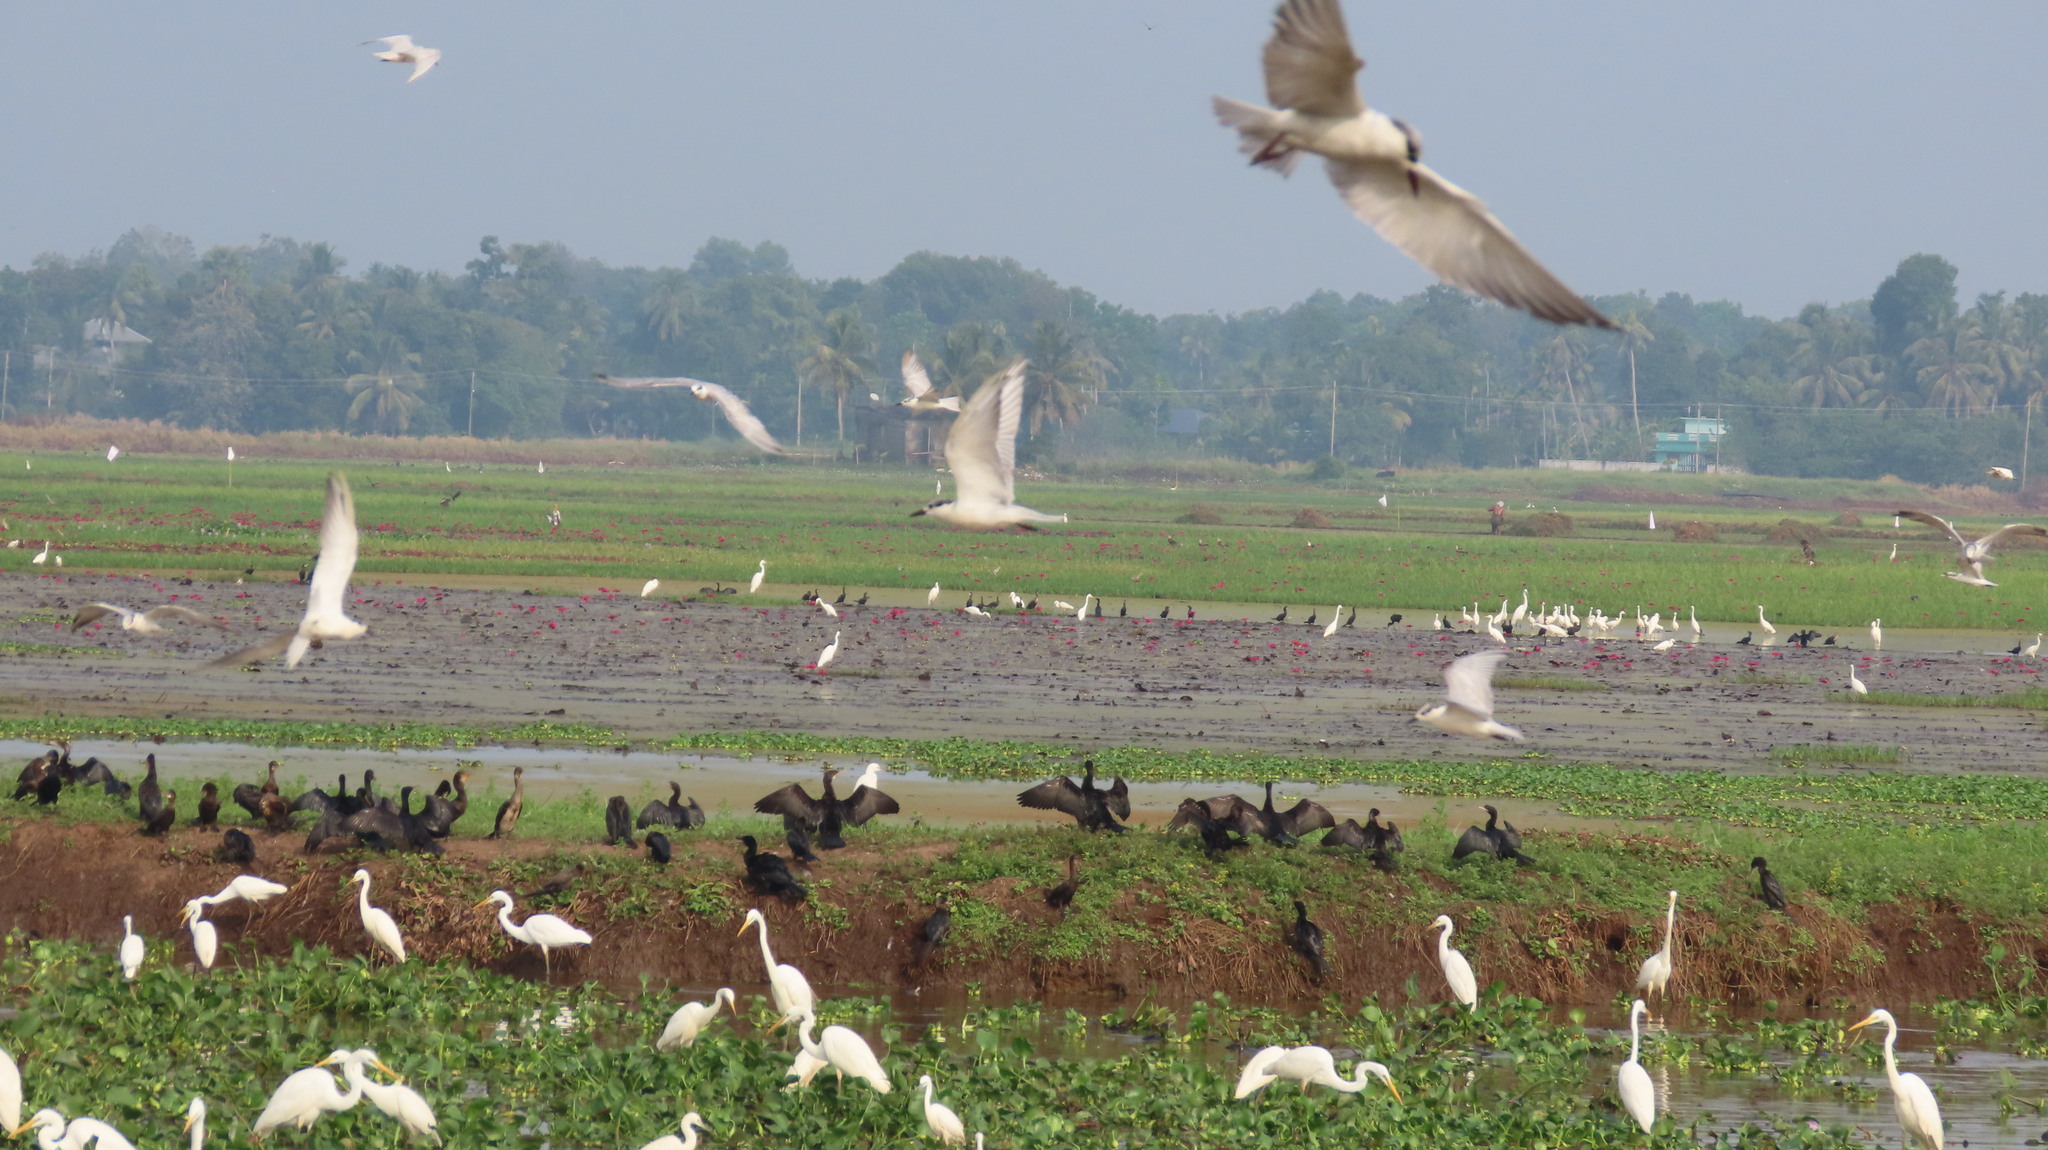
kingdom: Animalia
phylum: Chordata
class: Aves
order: Pelecaniformes
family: Ardeidae
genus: Egretta
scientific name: Egretta intermedia
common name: Intermediate egret
